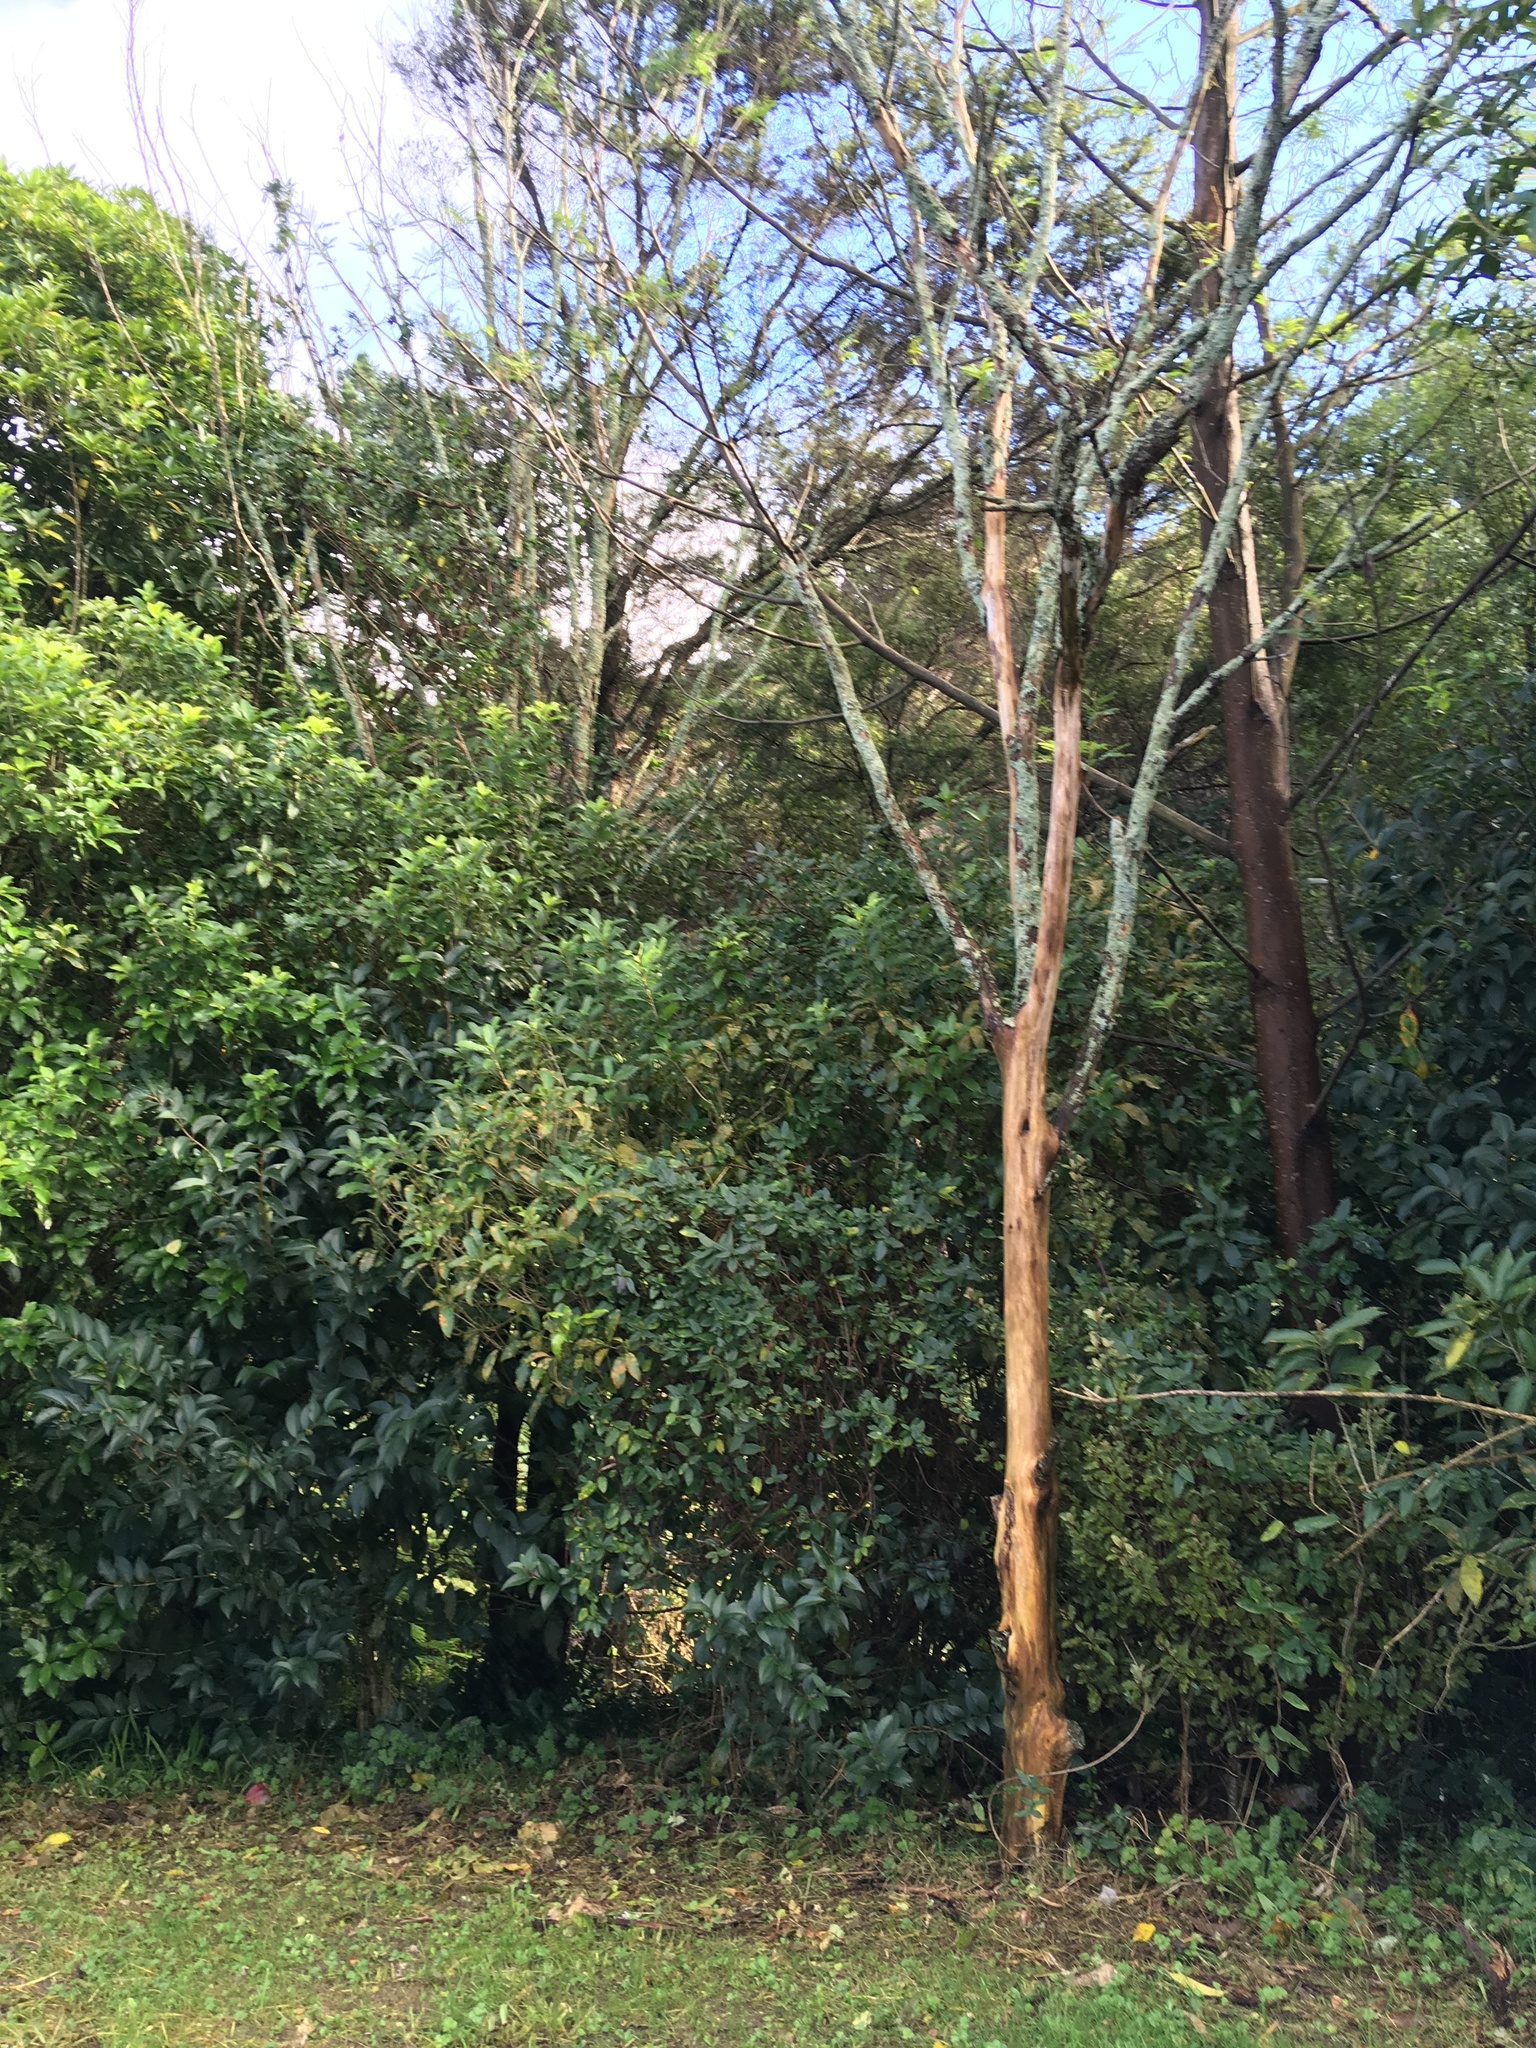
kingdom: Plantae
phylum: Tracheophyta
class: Magnoliopsida
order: Malpighiales
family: Violaceae
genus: Melicytus
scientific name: Melicytus ramiflorus
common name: Mahoe
